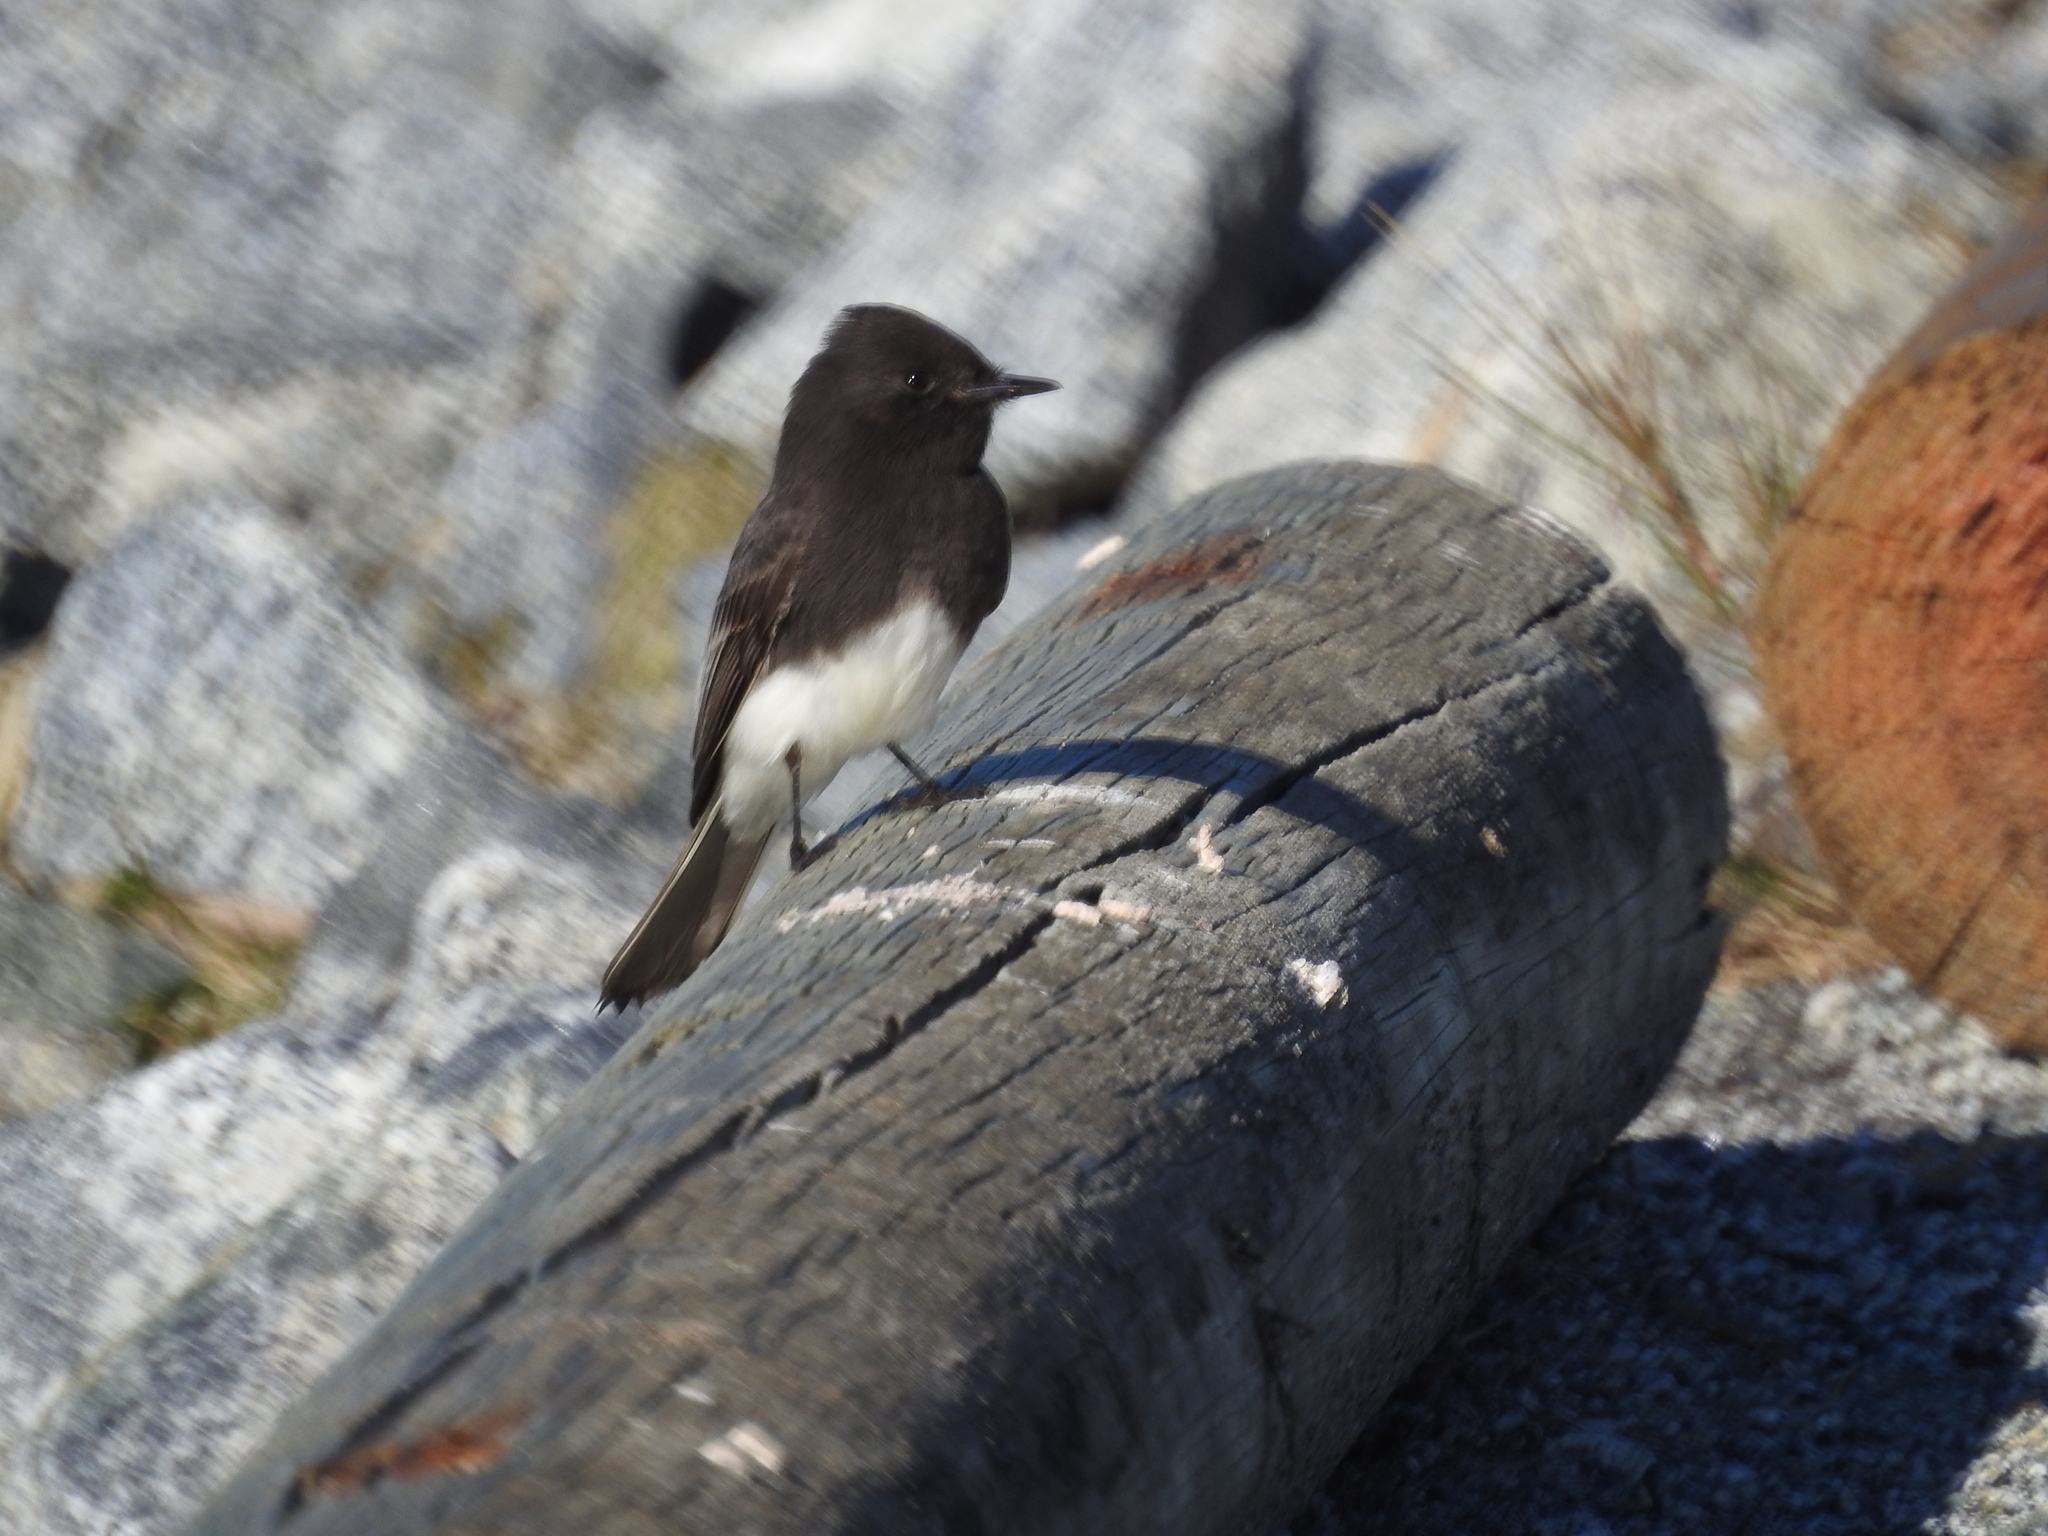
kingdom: Animalia
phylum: Chordata
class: Aves
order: Passeriformes
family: Tyrannidae
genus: Sayornis
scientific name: Sayornis nigricans
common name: Black phoebe
